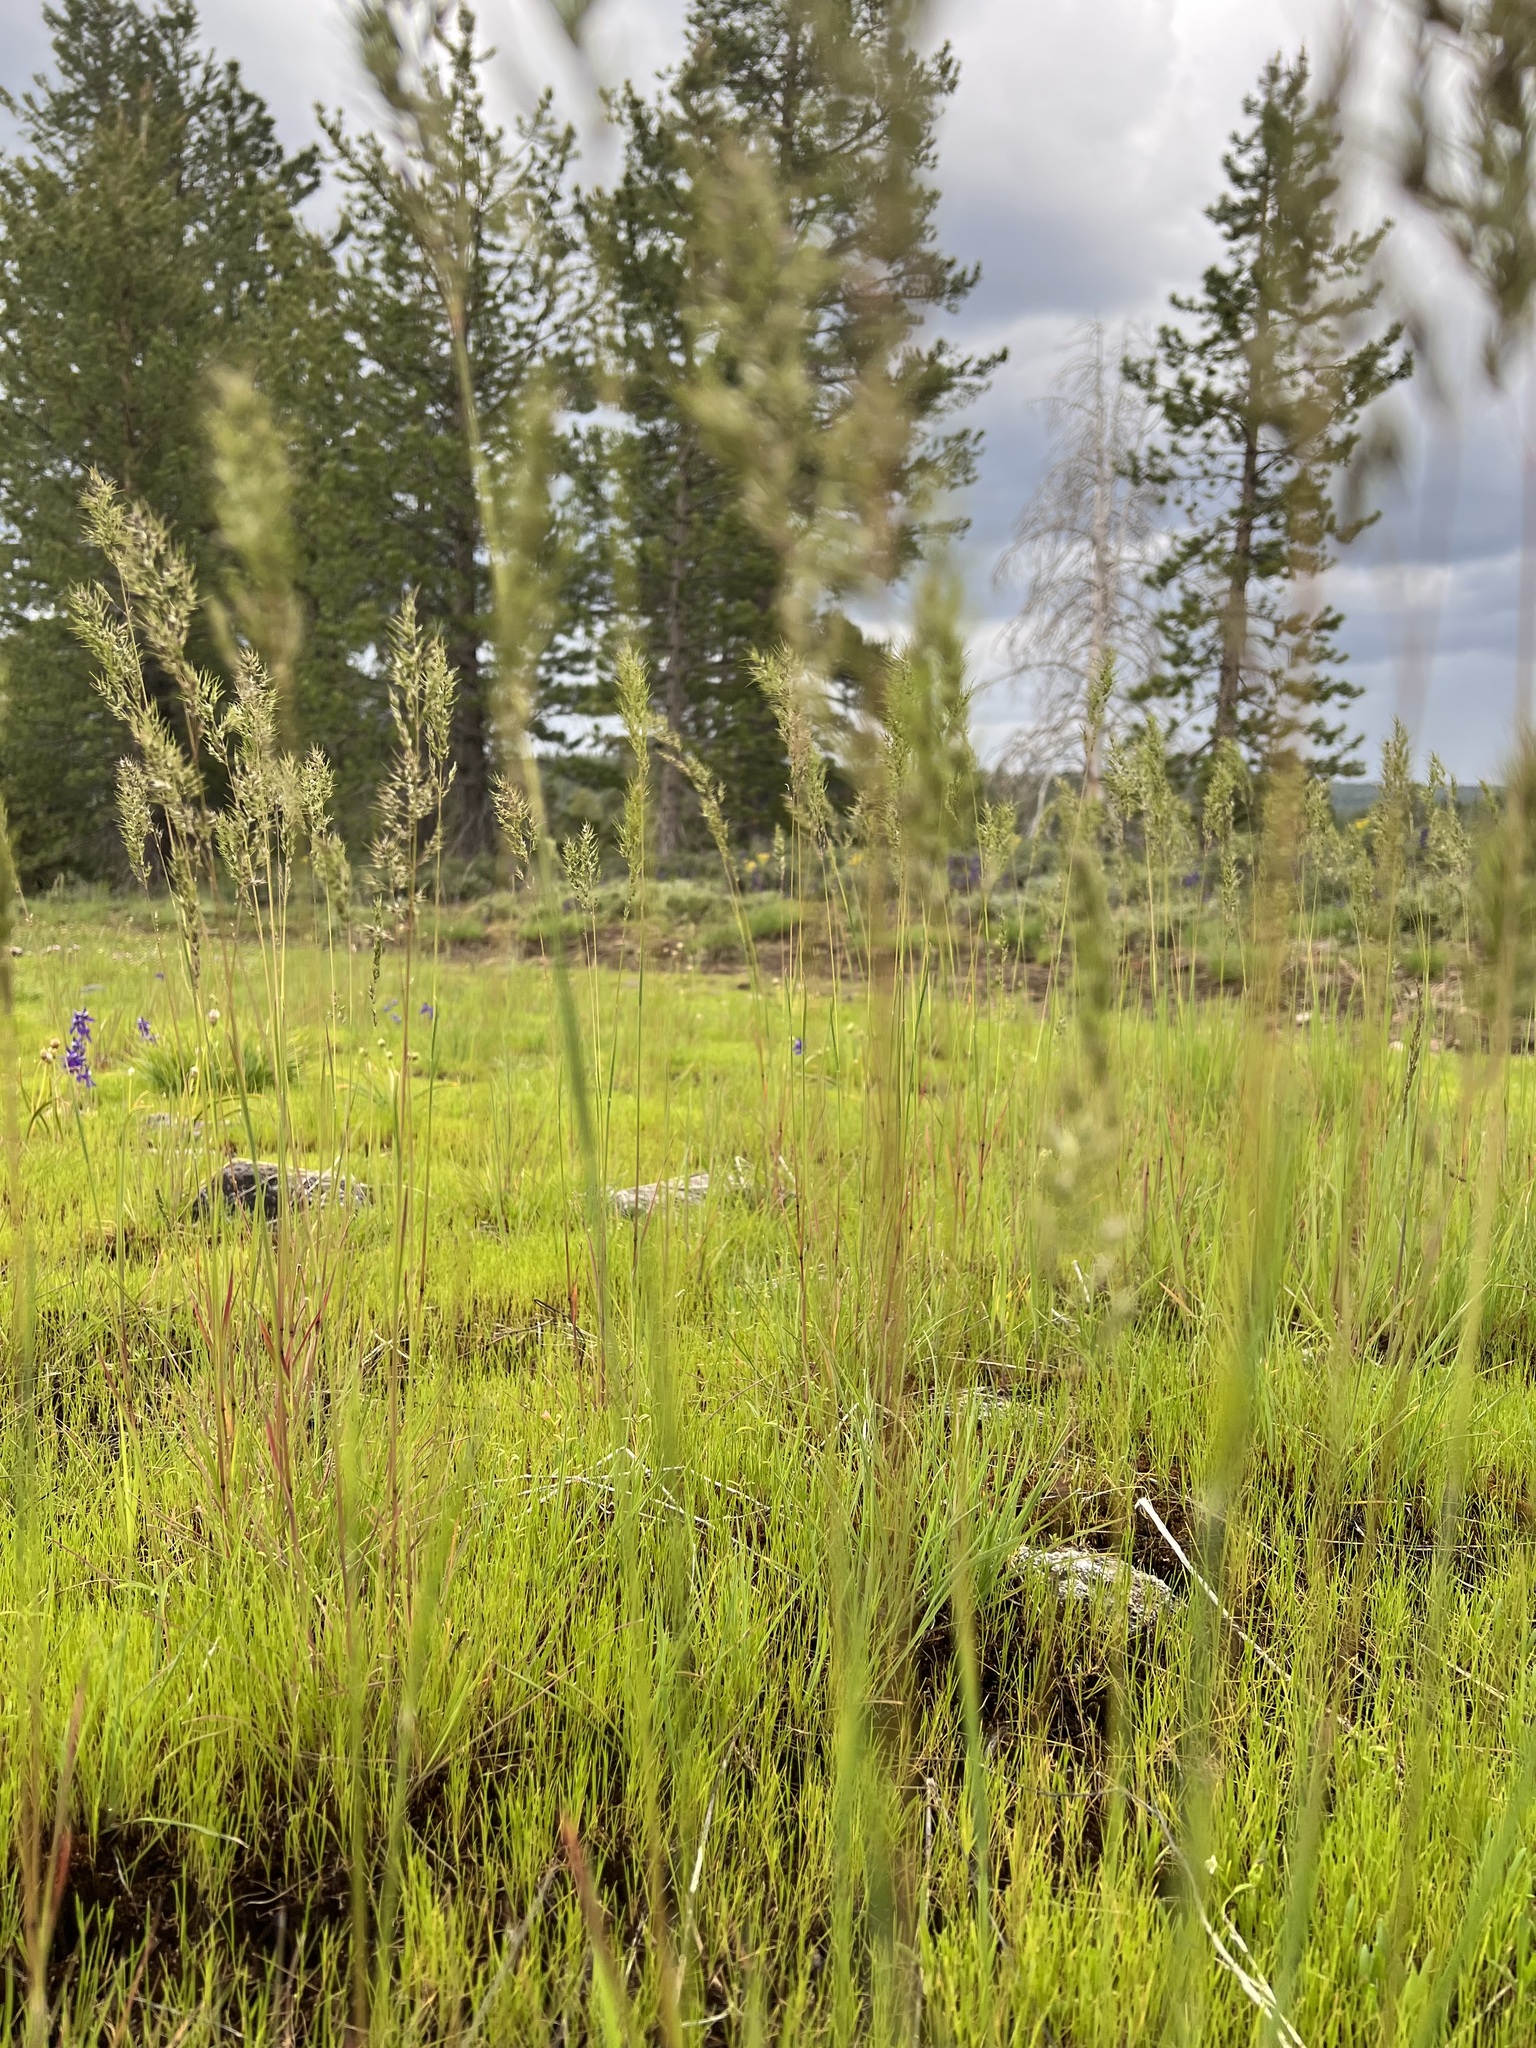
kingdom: Plantae
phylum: Tracheophyta
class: Liliopsida
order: Poales
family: Poaceae
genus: Poa
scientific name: Poa bulbosa
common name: Bulbous bluegrass
